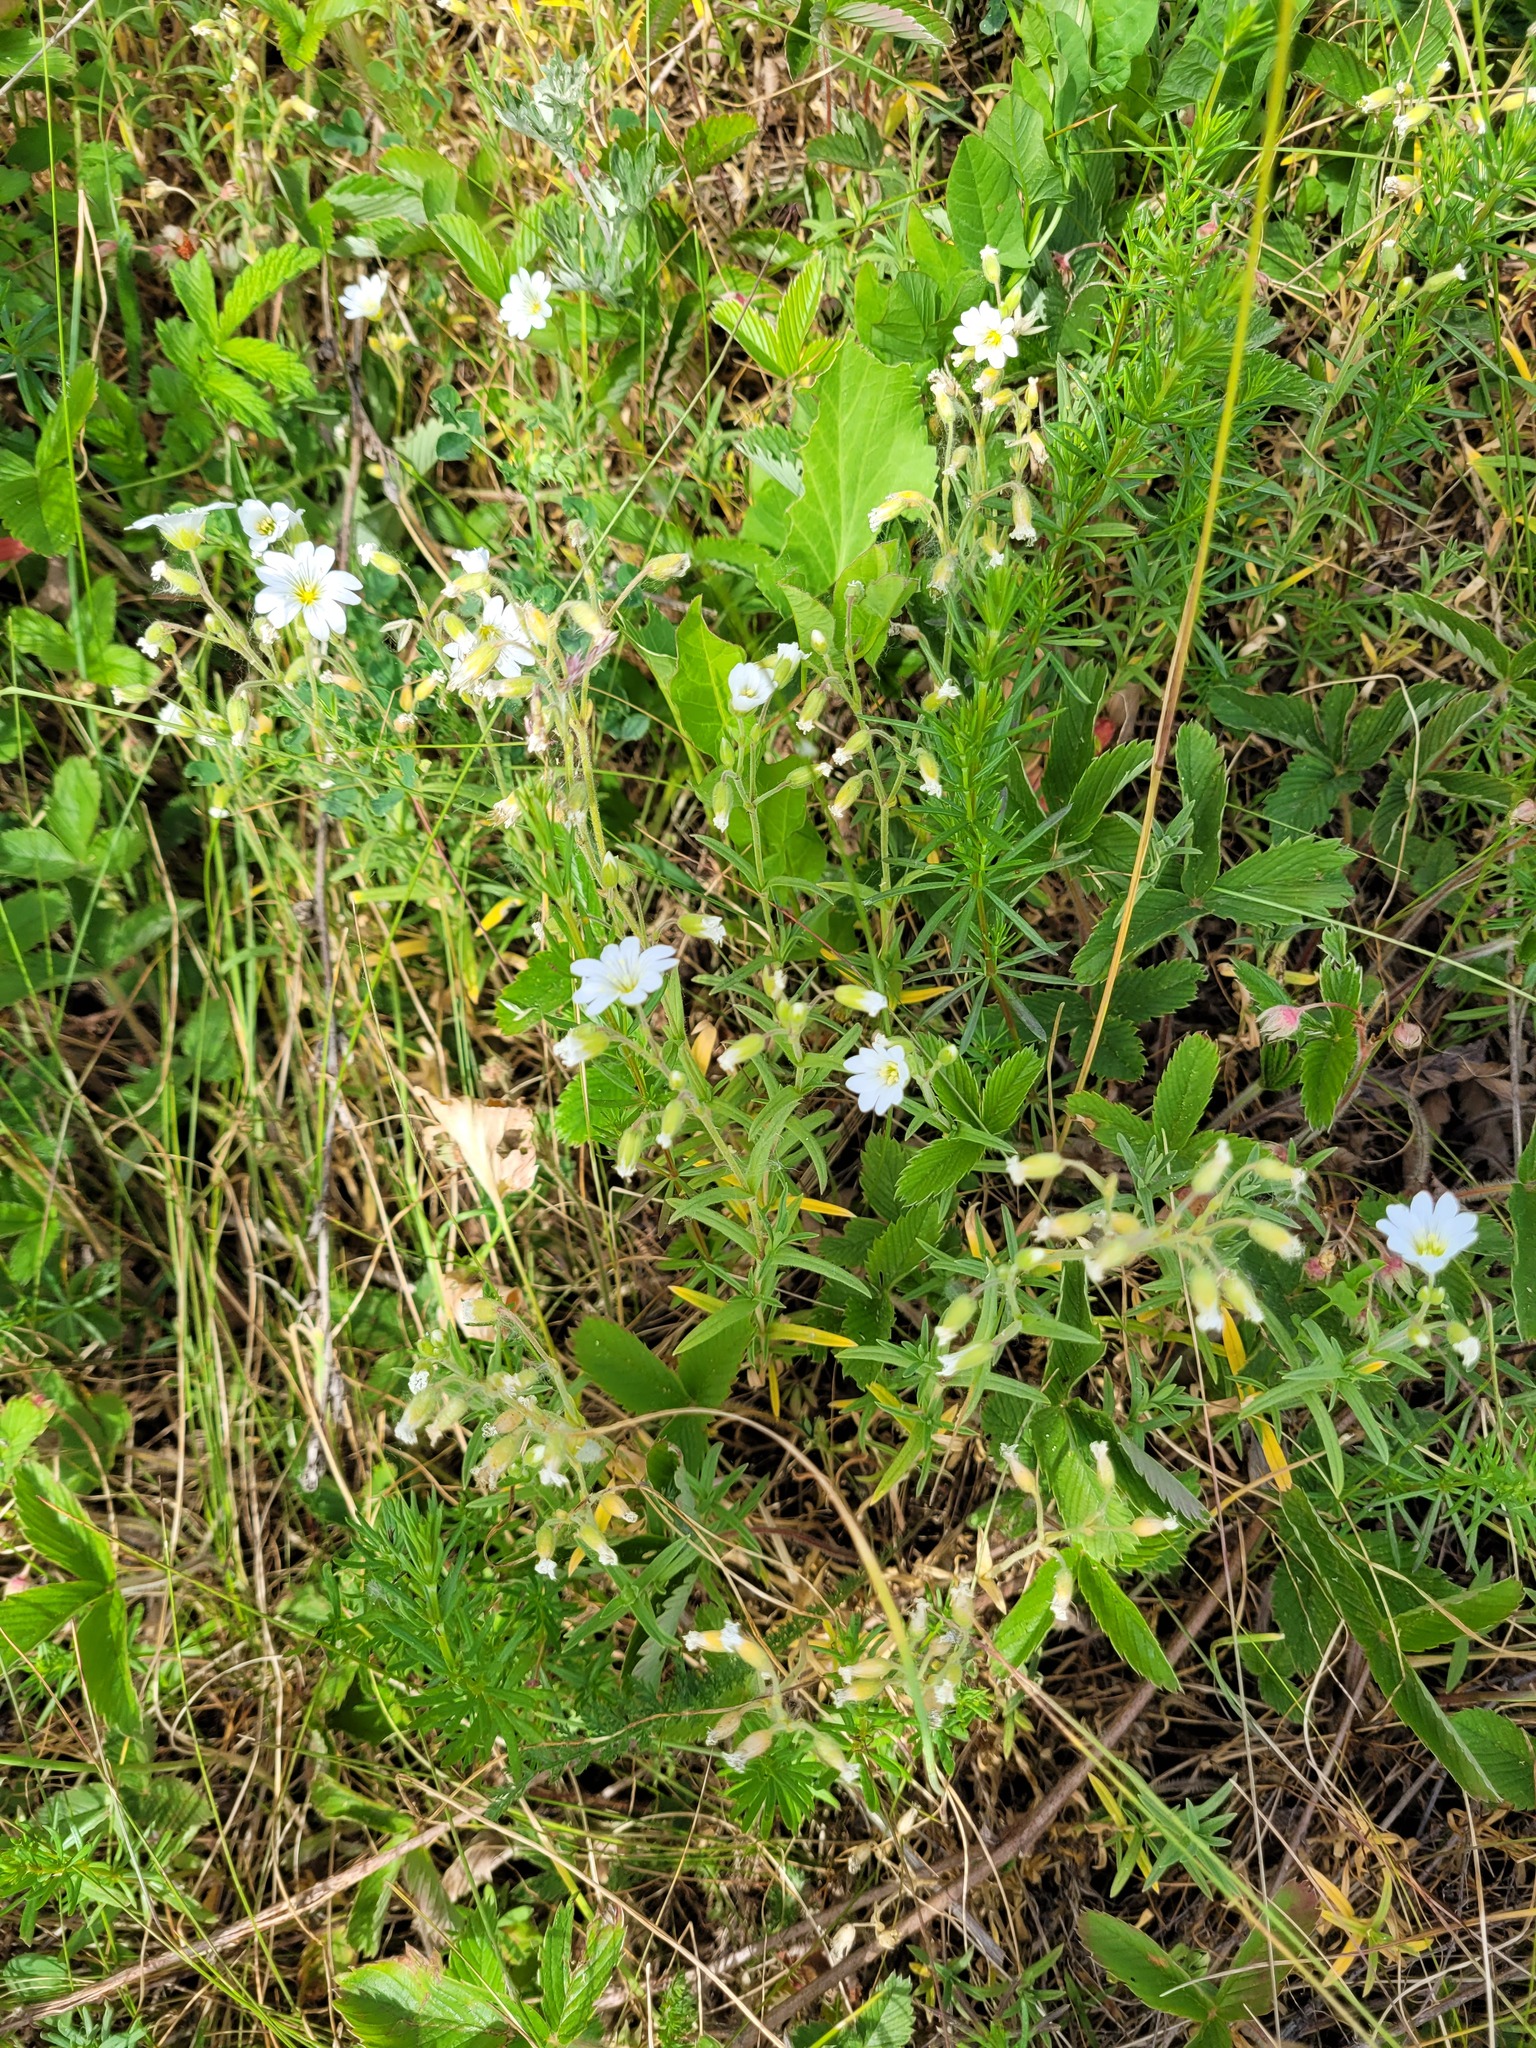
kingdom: Plantae
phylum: Tracheophyta
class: Magnoliopsida
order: Caryophyllales
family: Caryophyllaceae
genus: Cerastium
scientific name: Cerastium arvense
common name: Field mouse-ear
